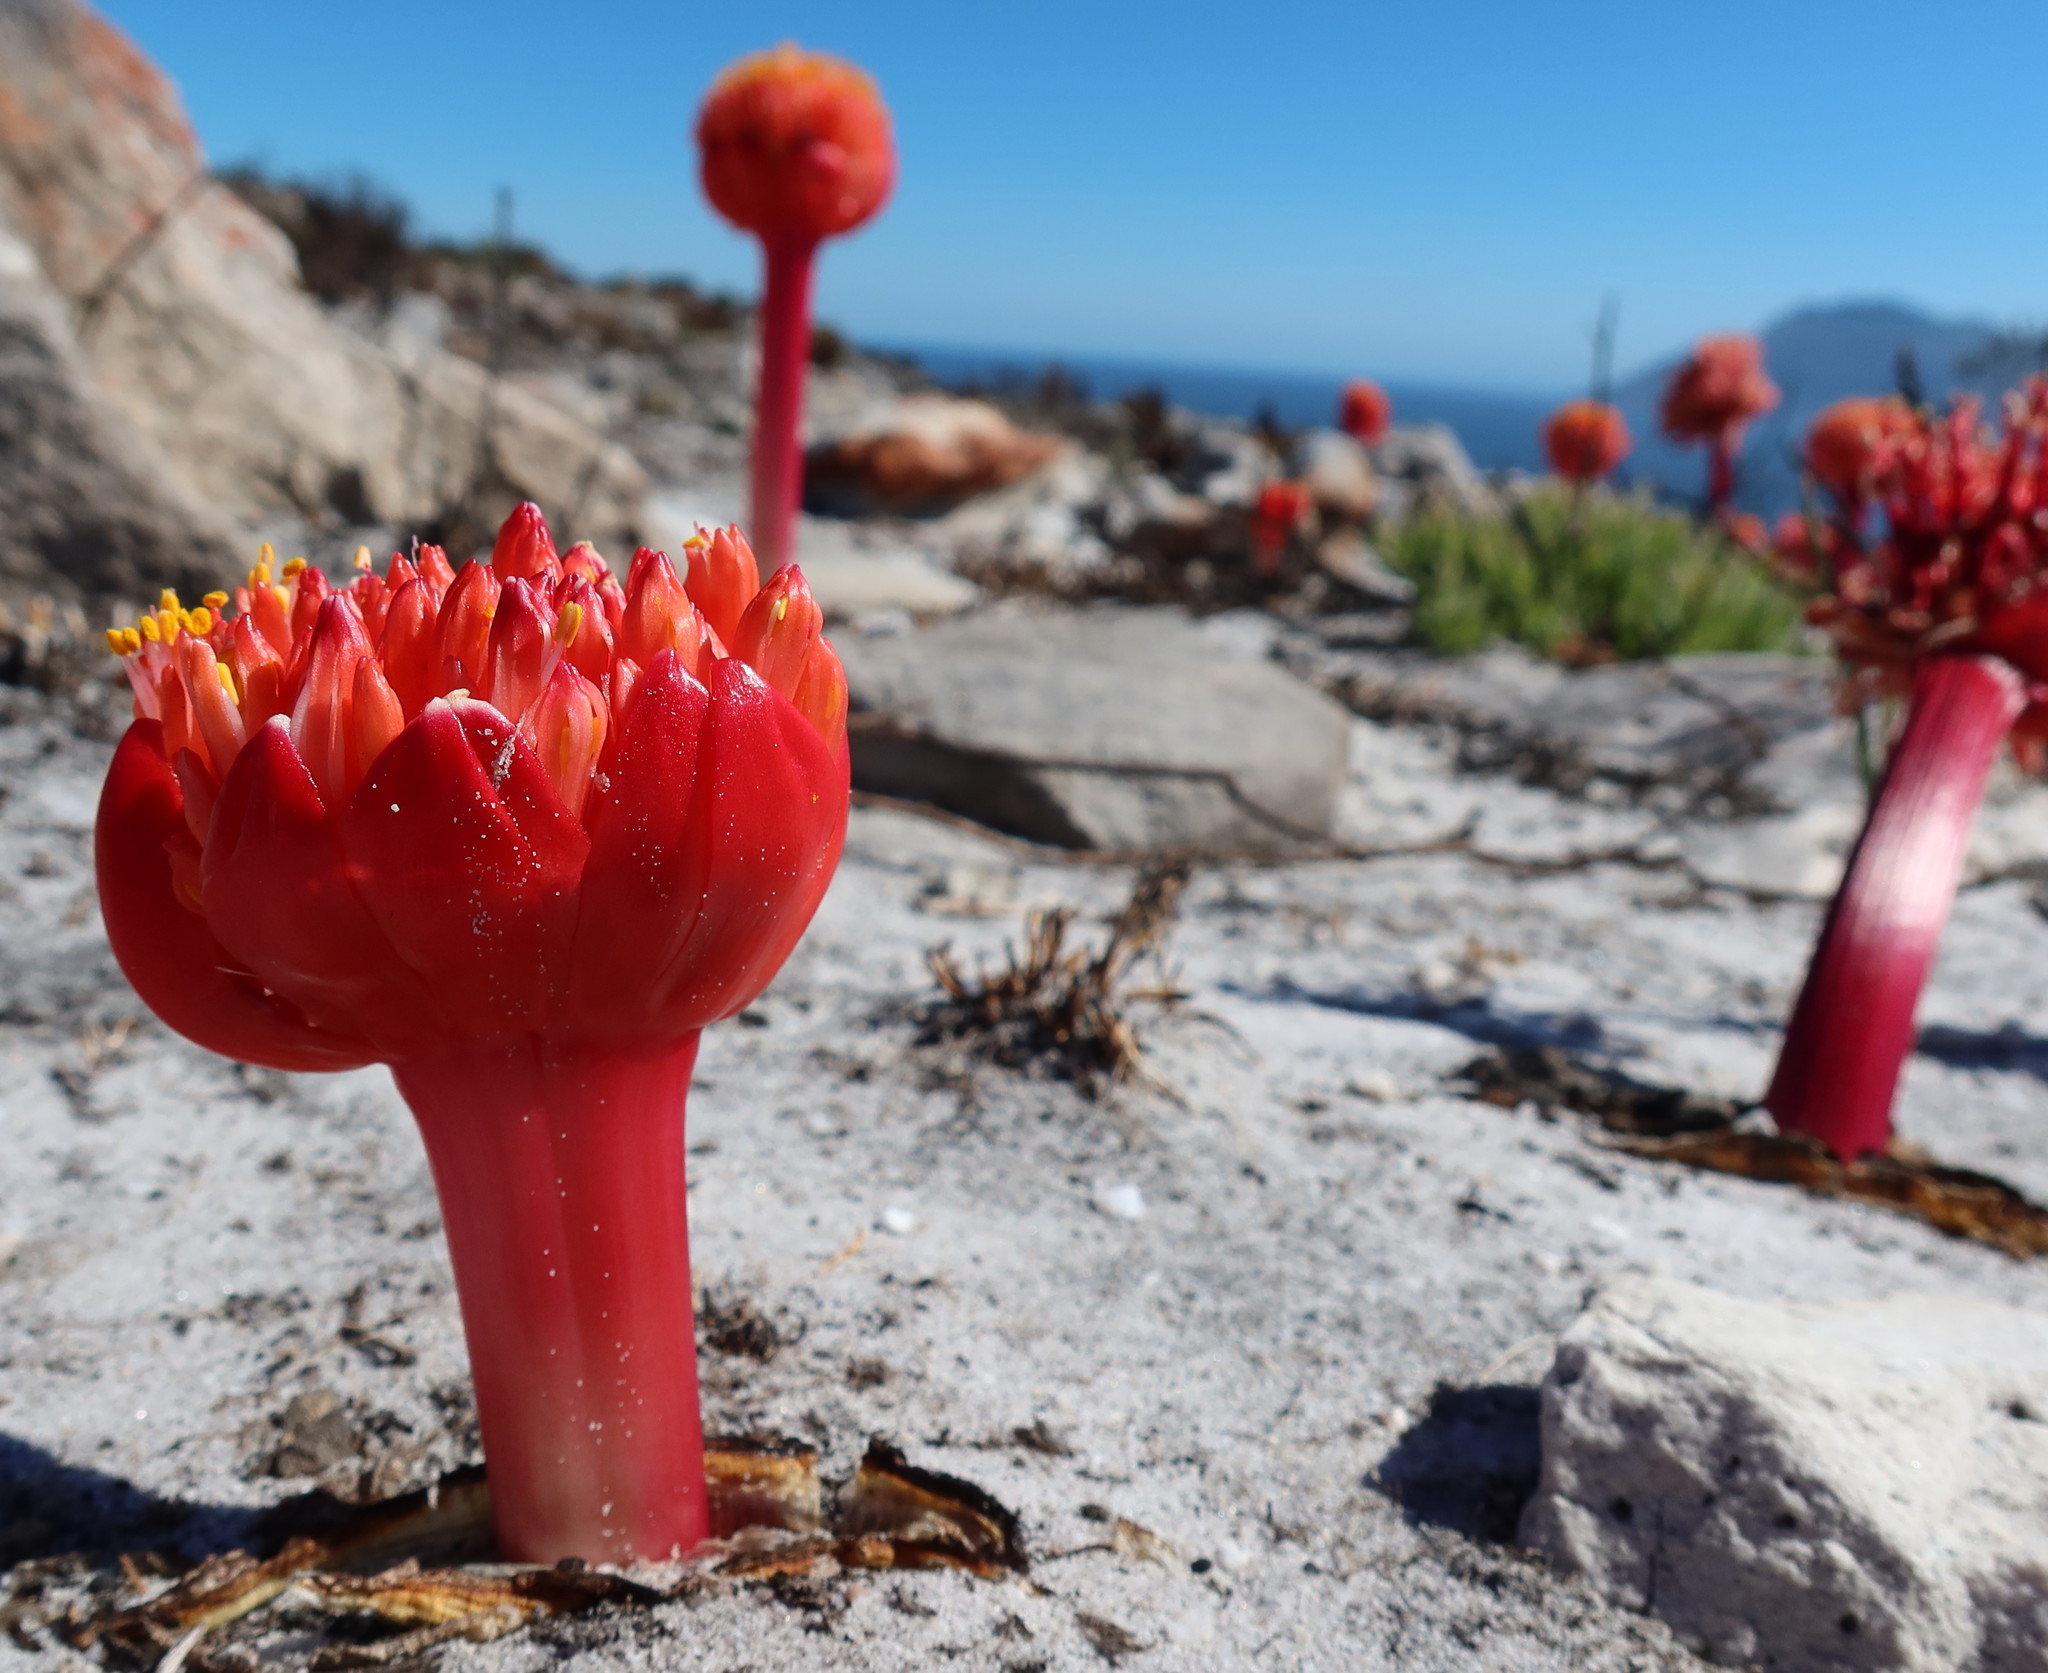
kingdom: Plantae
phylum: Tracheophyta
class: Liliopsida
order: Asparagales
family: Amaryllidaceae
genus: Haemanthus
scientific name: Haemanthus sanguineus
